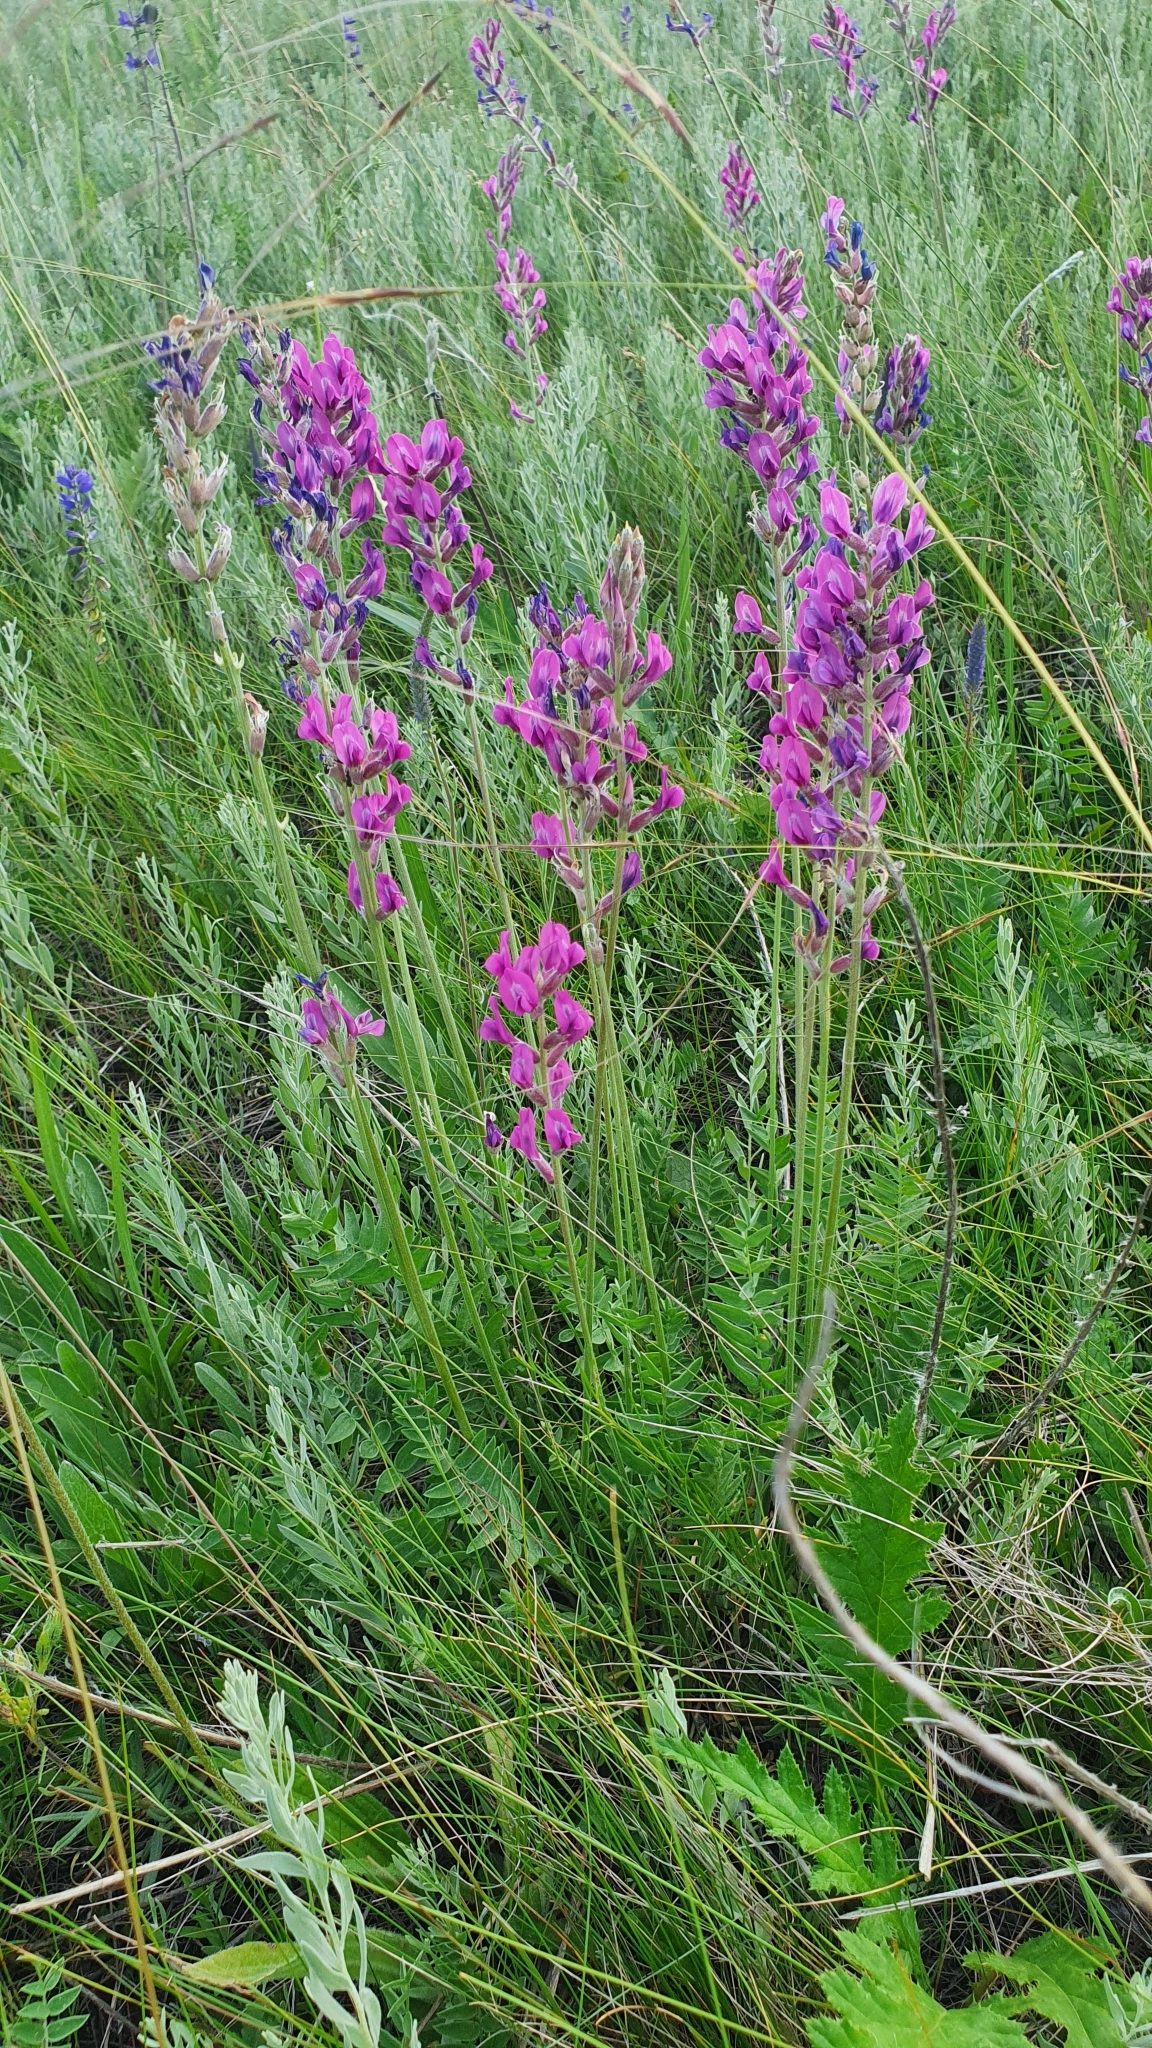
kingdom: Plantae
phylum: Tracheophyta
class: Magnoliopsida
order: Fabales
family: Fabaceae
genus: Oxytropis
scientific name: Oxytropis knjazevii
